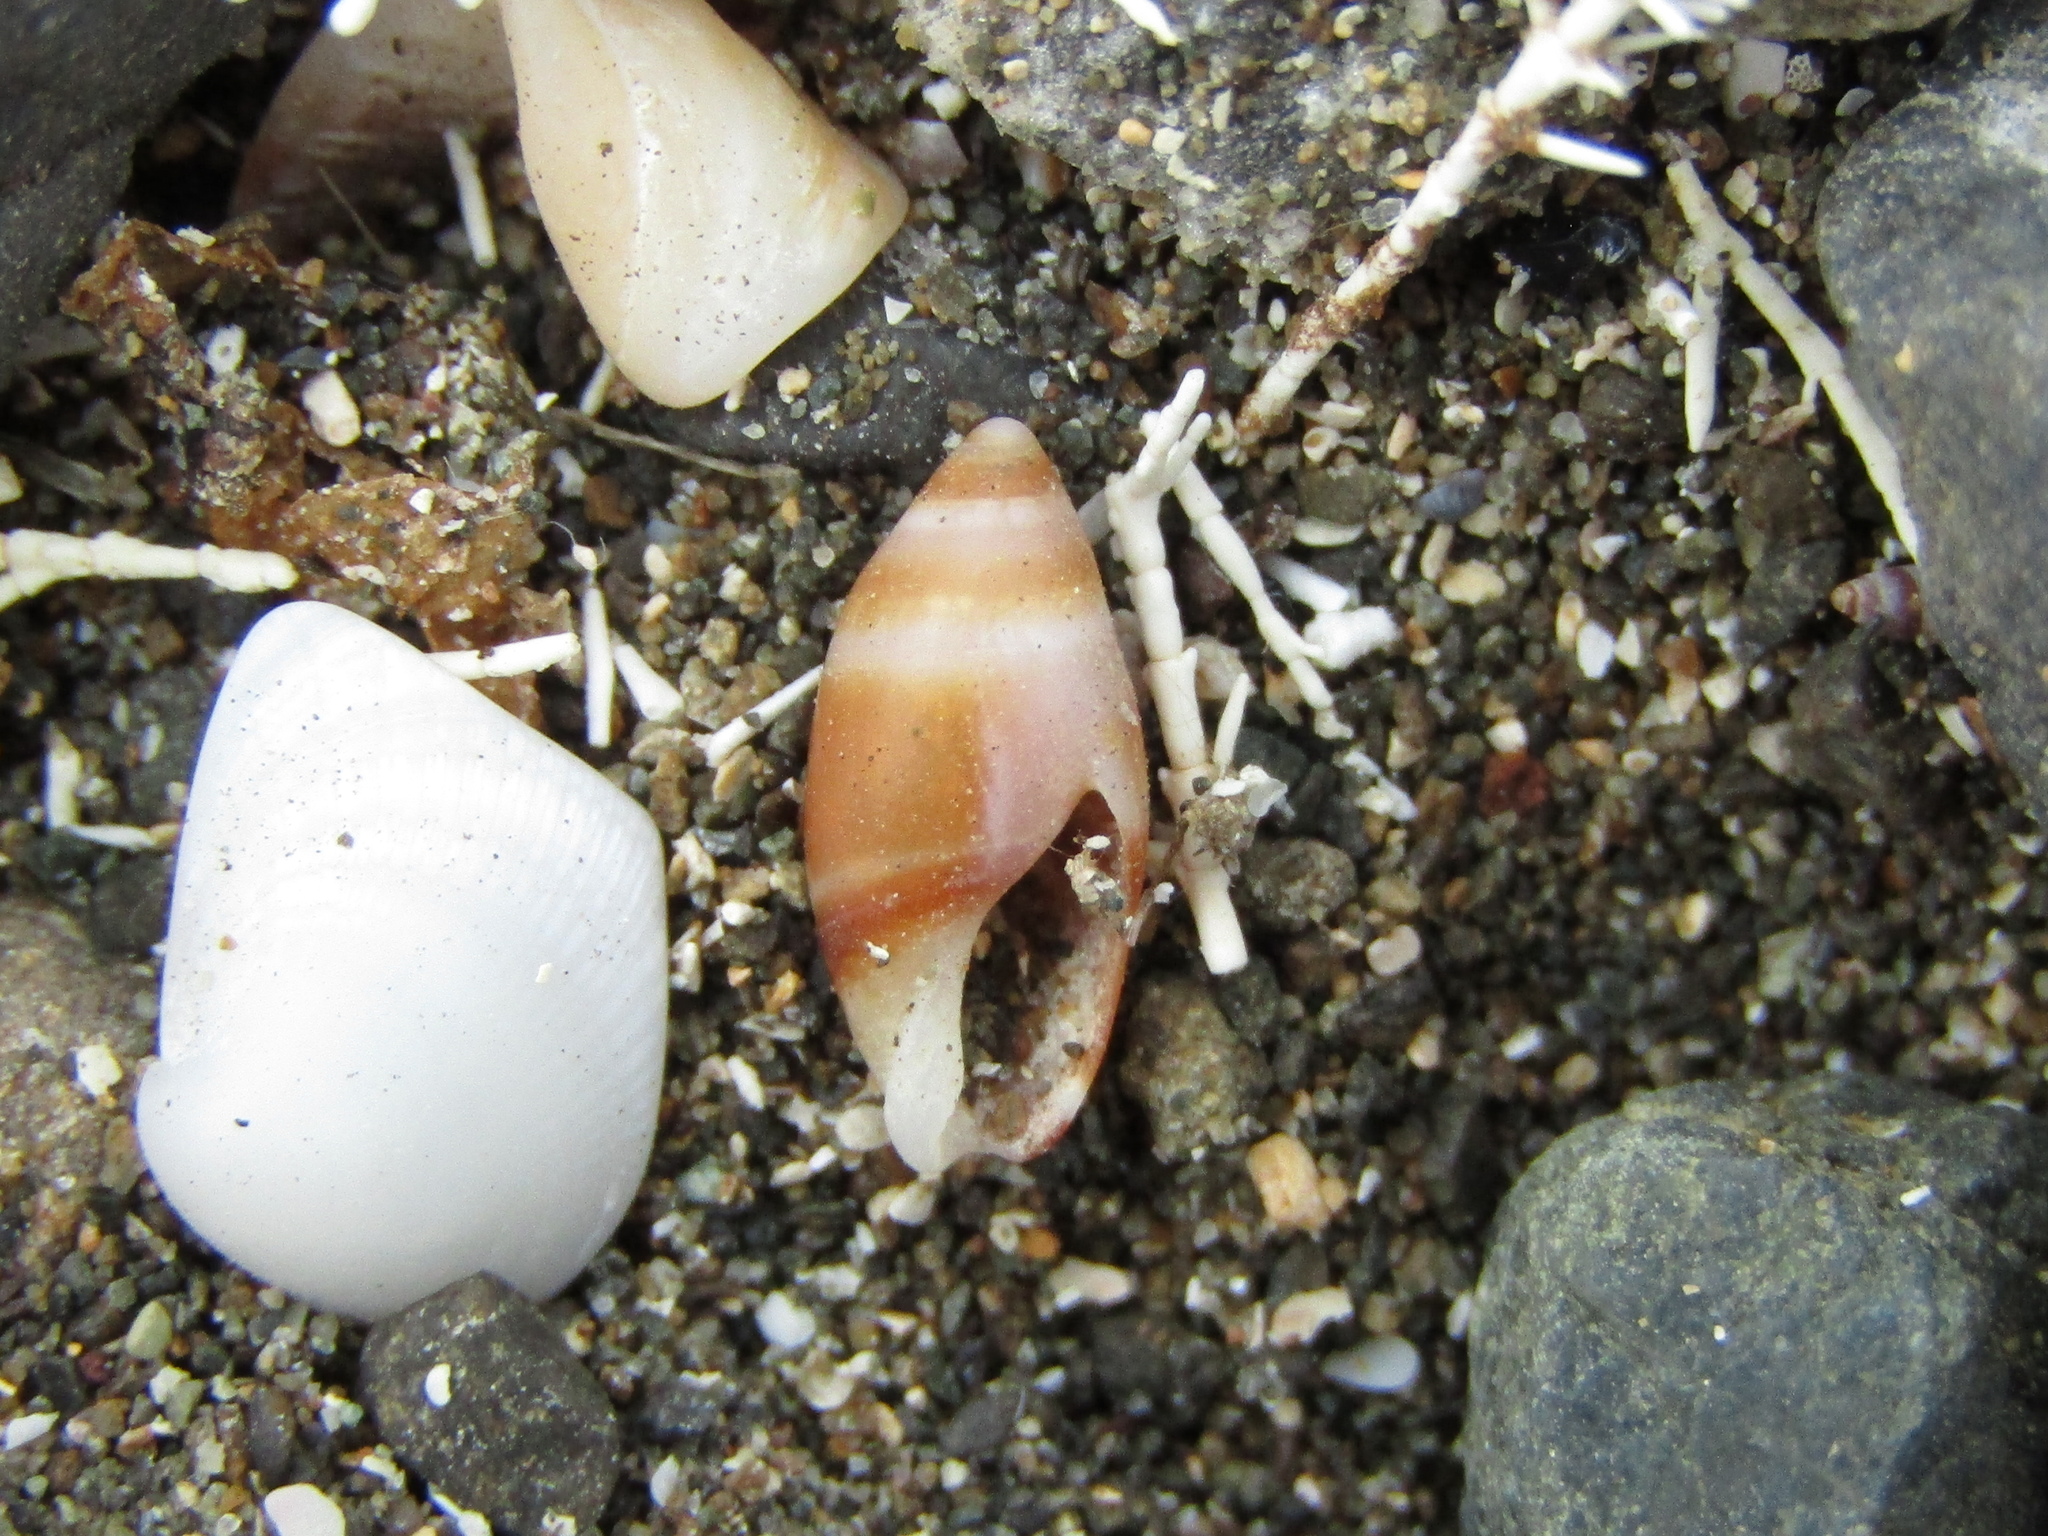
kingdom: Animalia
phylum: Mollusca
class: Gastropoda
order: Neogastropoda
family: Ancillariidae
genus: Amalda
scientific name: Amalda novaezelandiae
